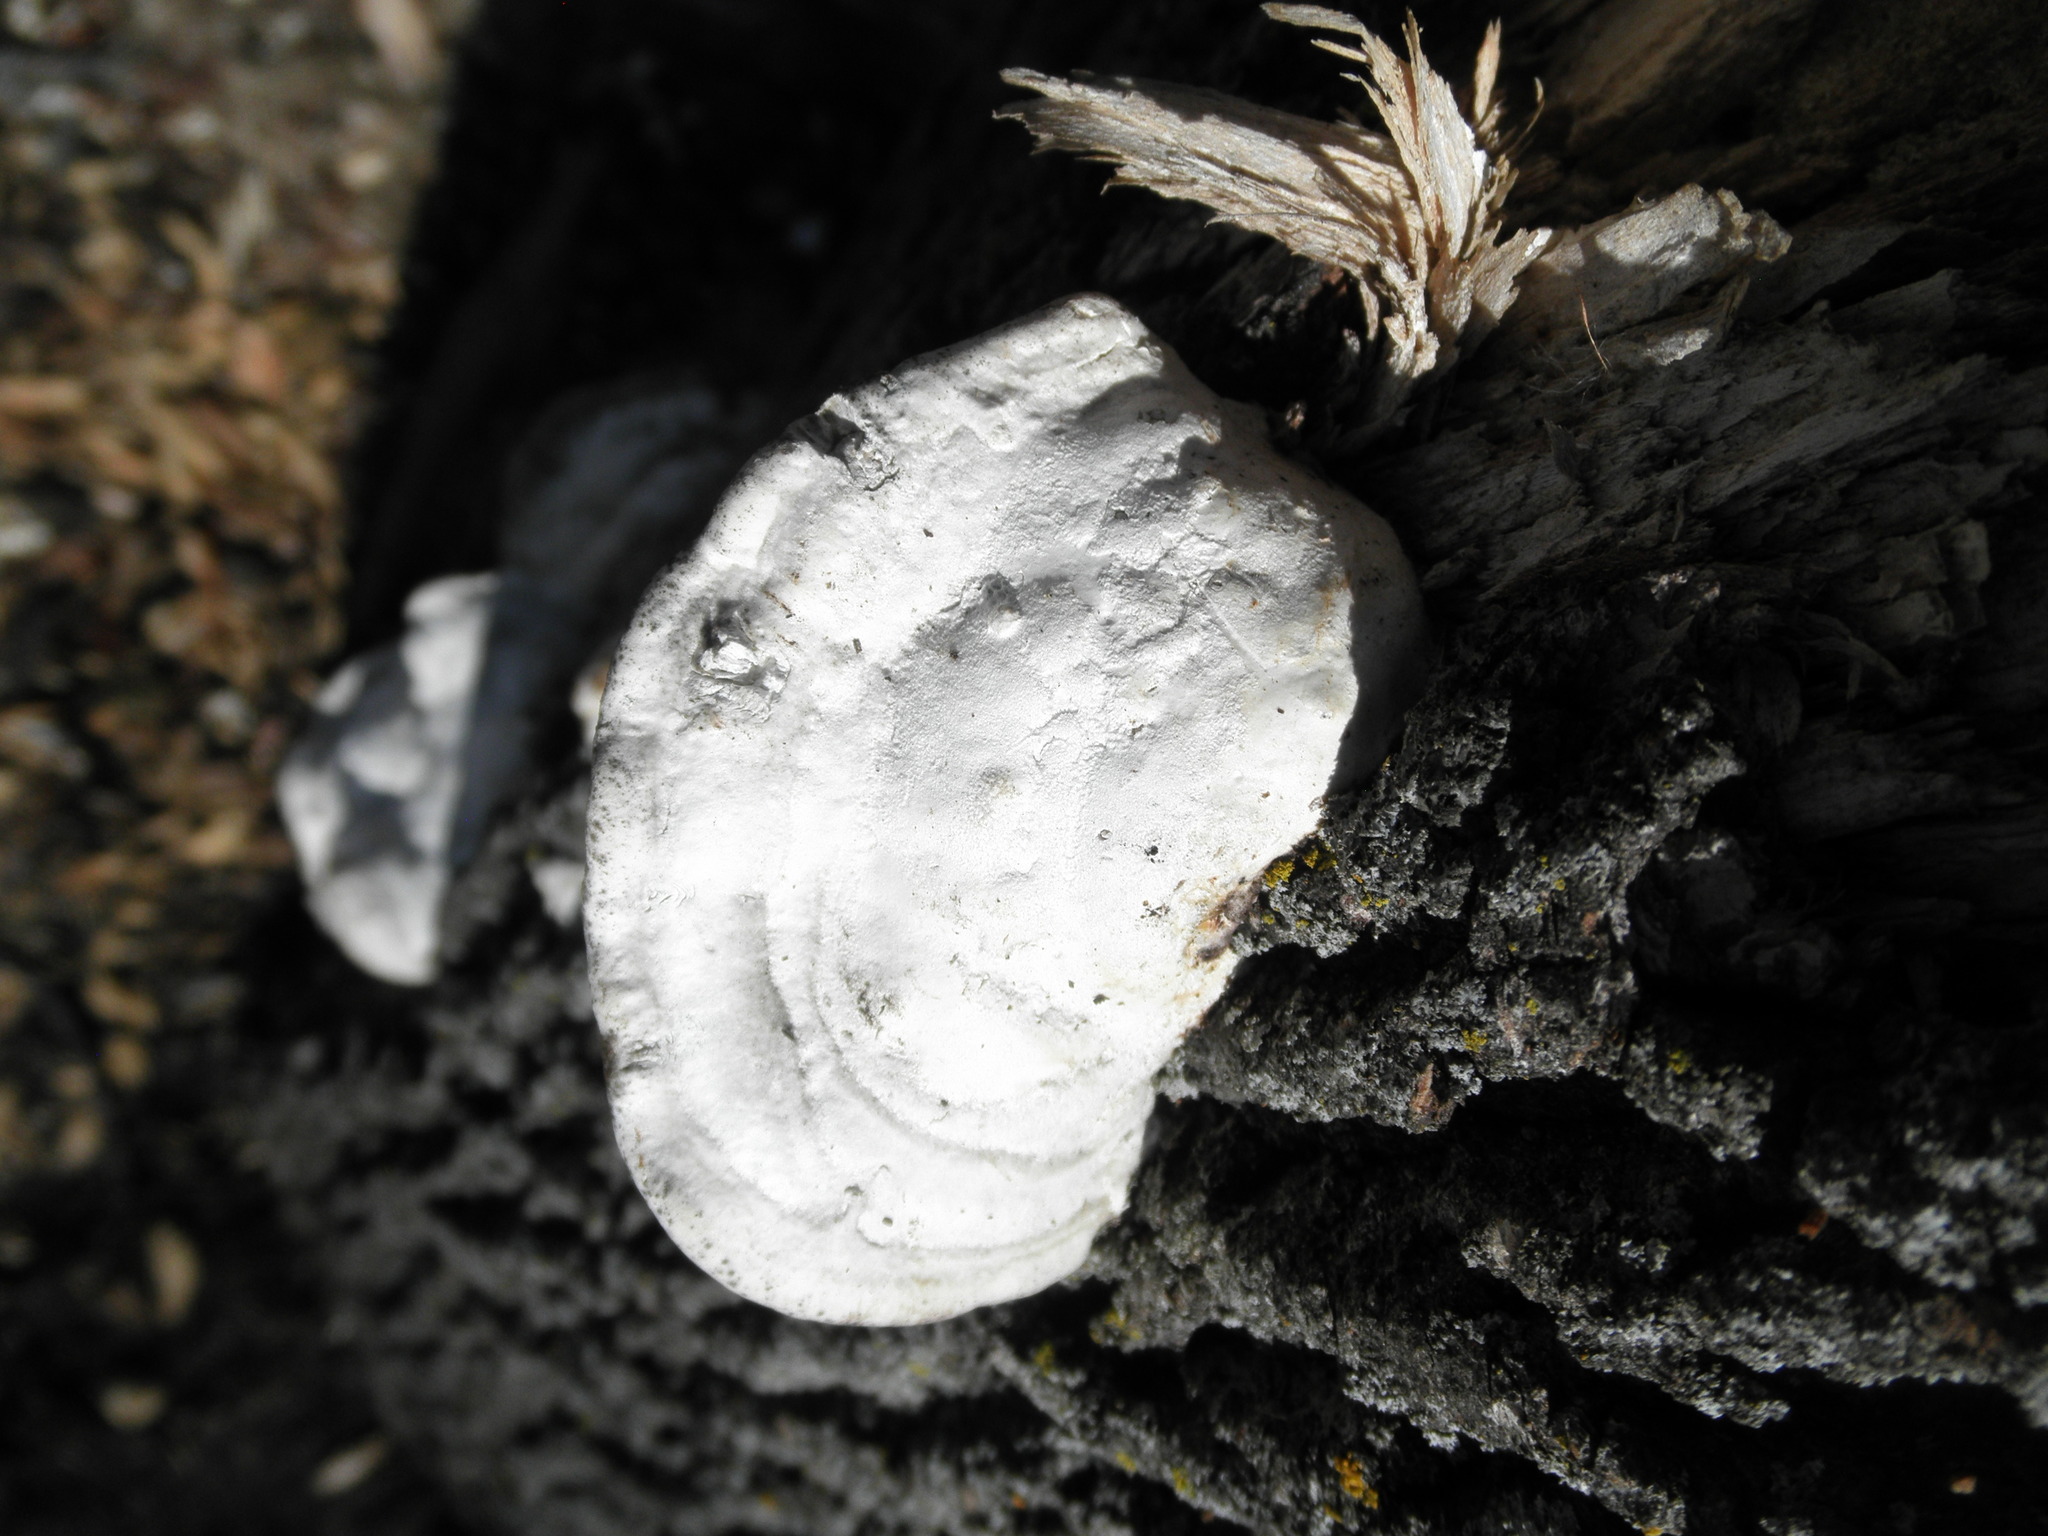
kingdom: Fungi
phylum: Basidiomycota
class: Agaricomycetes
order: Polyporales
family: Polyporaceae
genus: Trametes
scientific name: Trametes gibbosa
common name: Lumpy bracket
